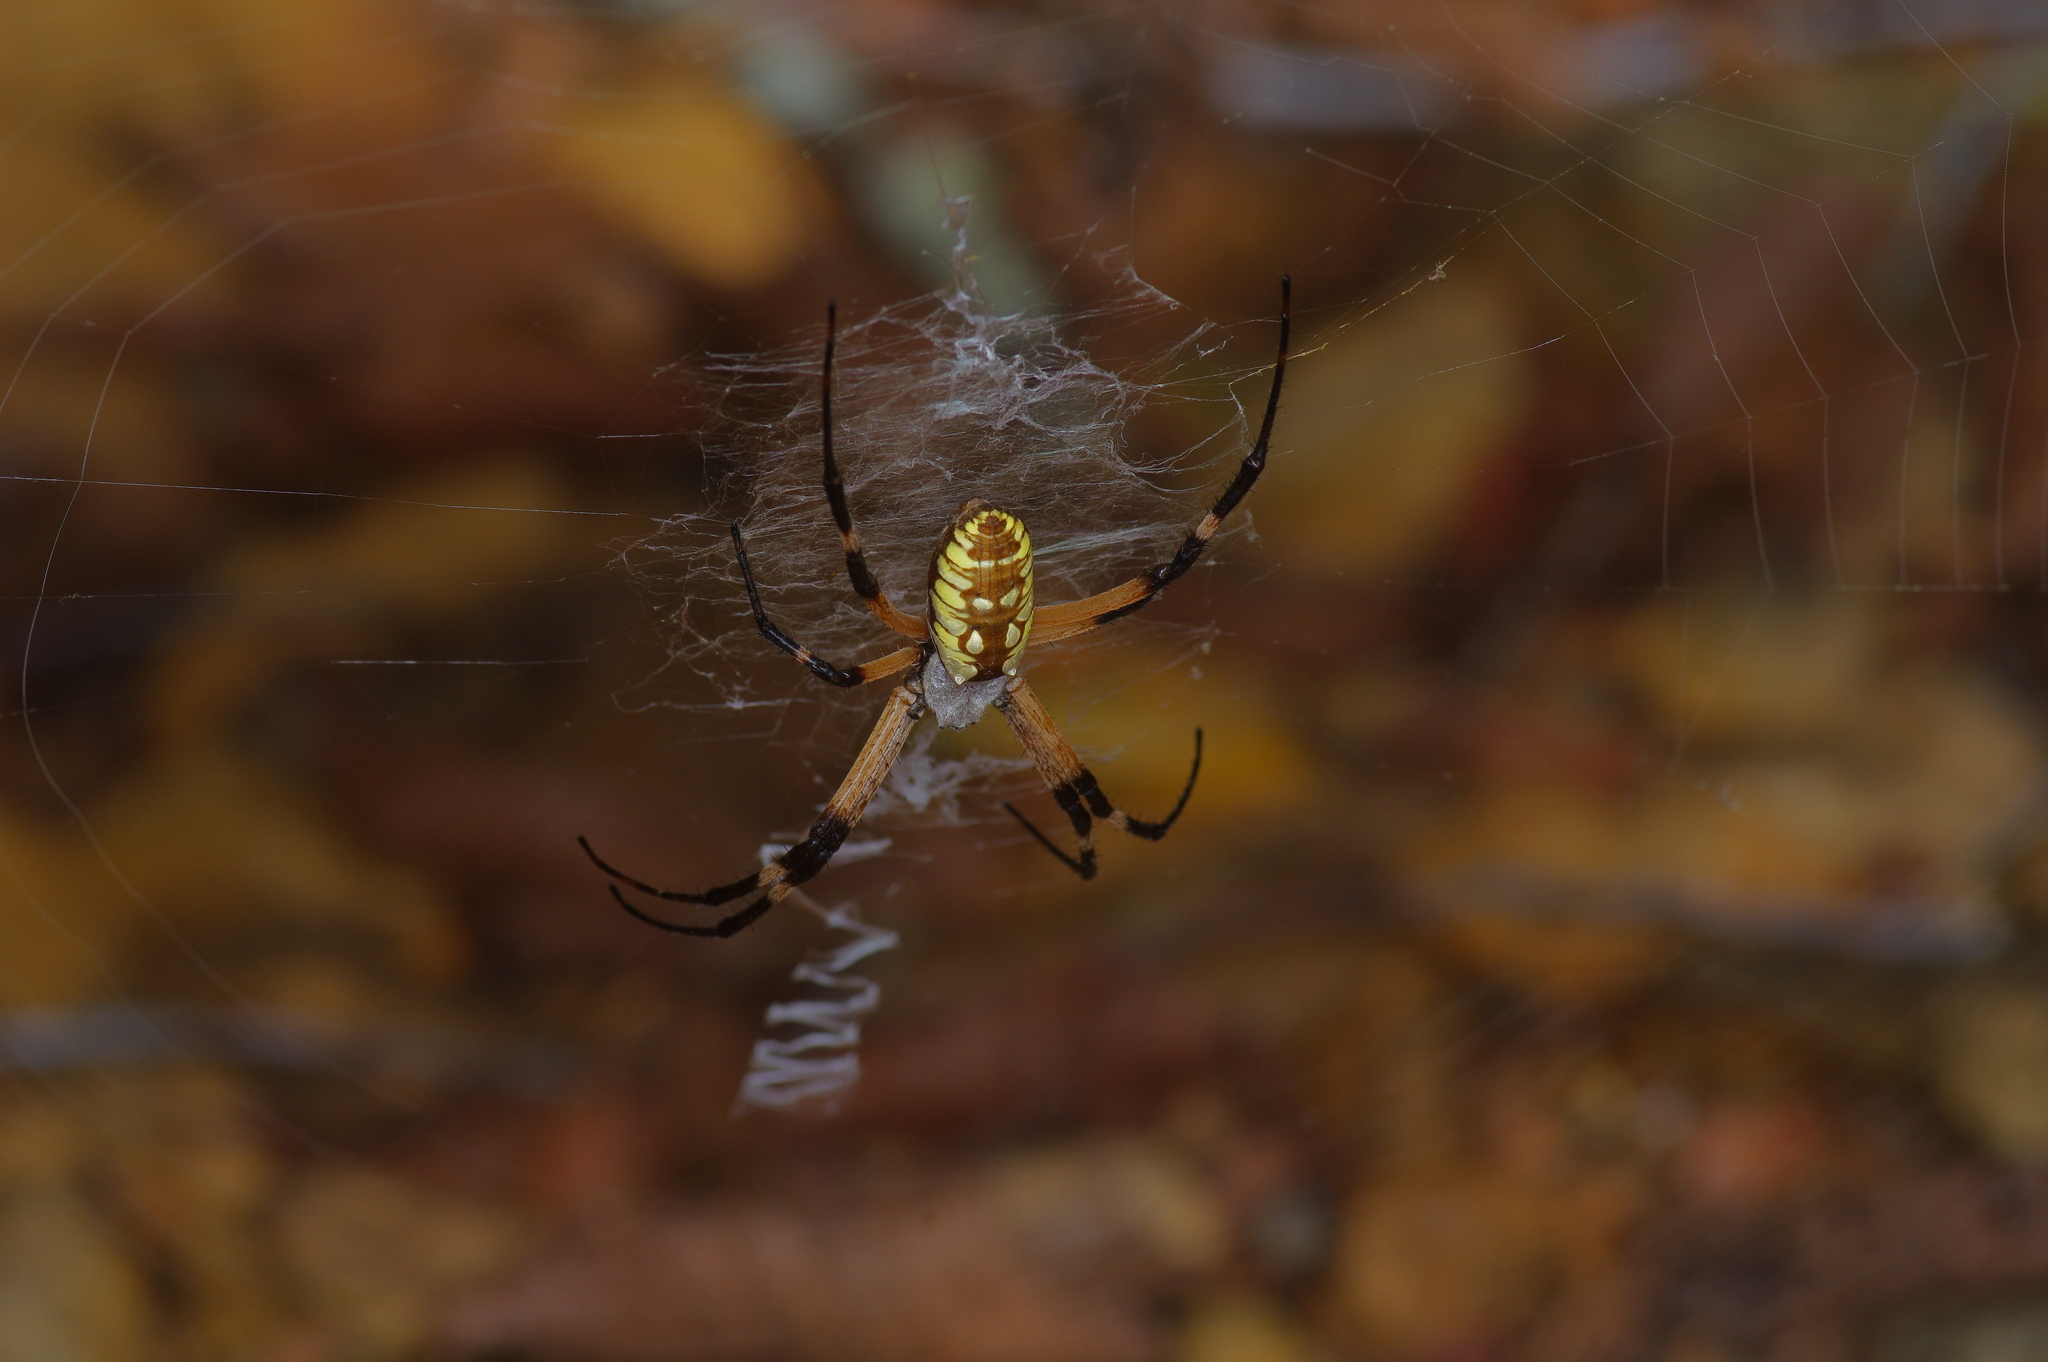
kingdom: Animalia
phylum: Arthropoda
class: Arachnida
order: Araneae
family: Araneidae
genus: Argiope
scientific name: Argiope aurantia
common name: Orb weavers
